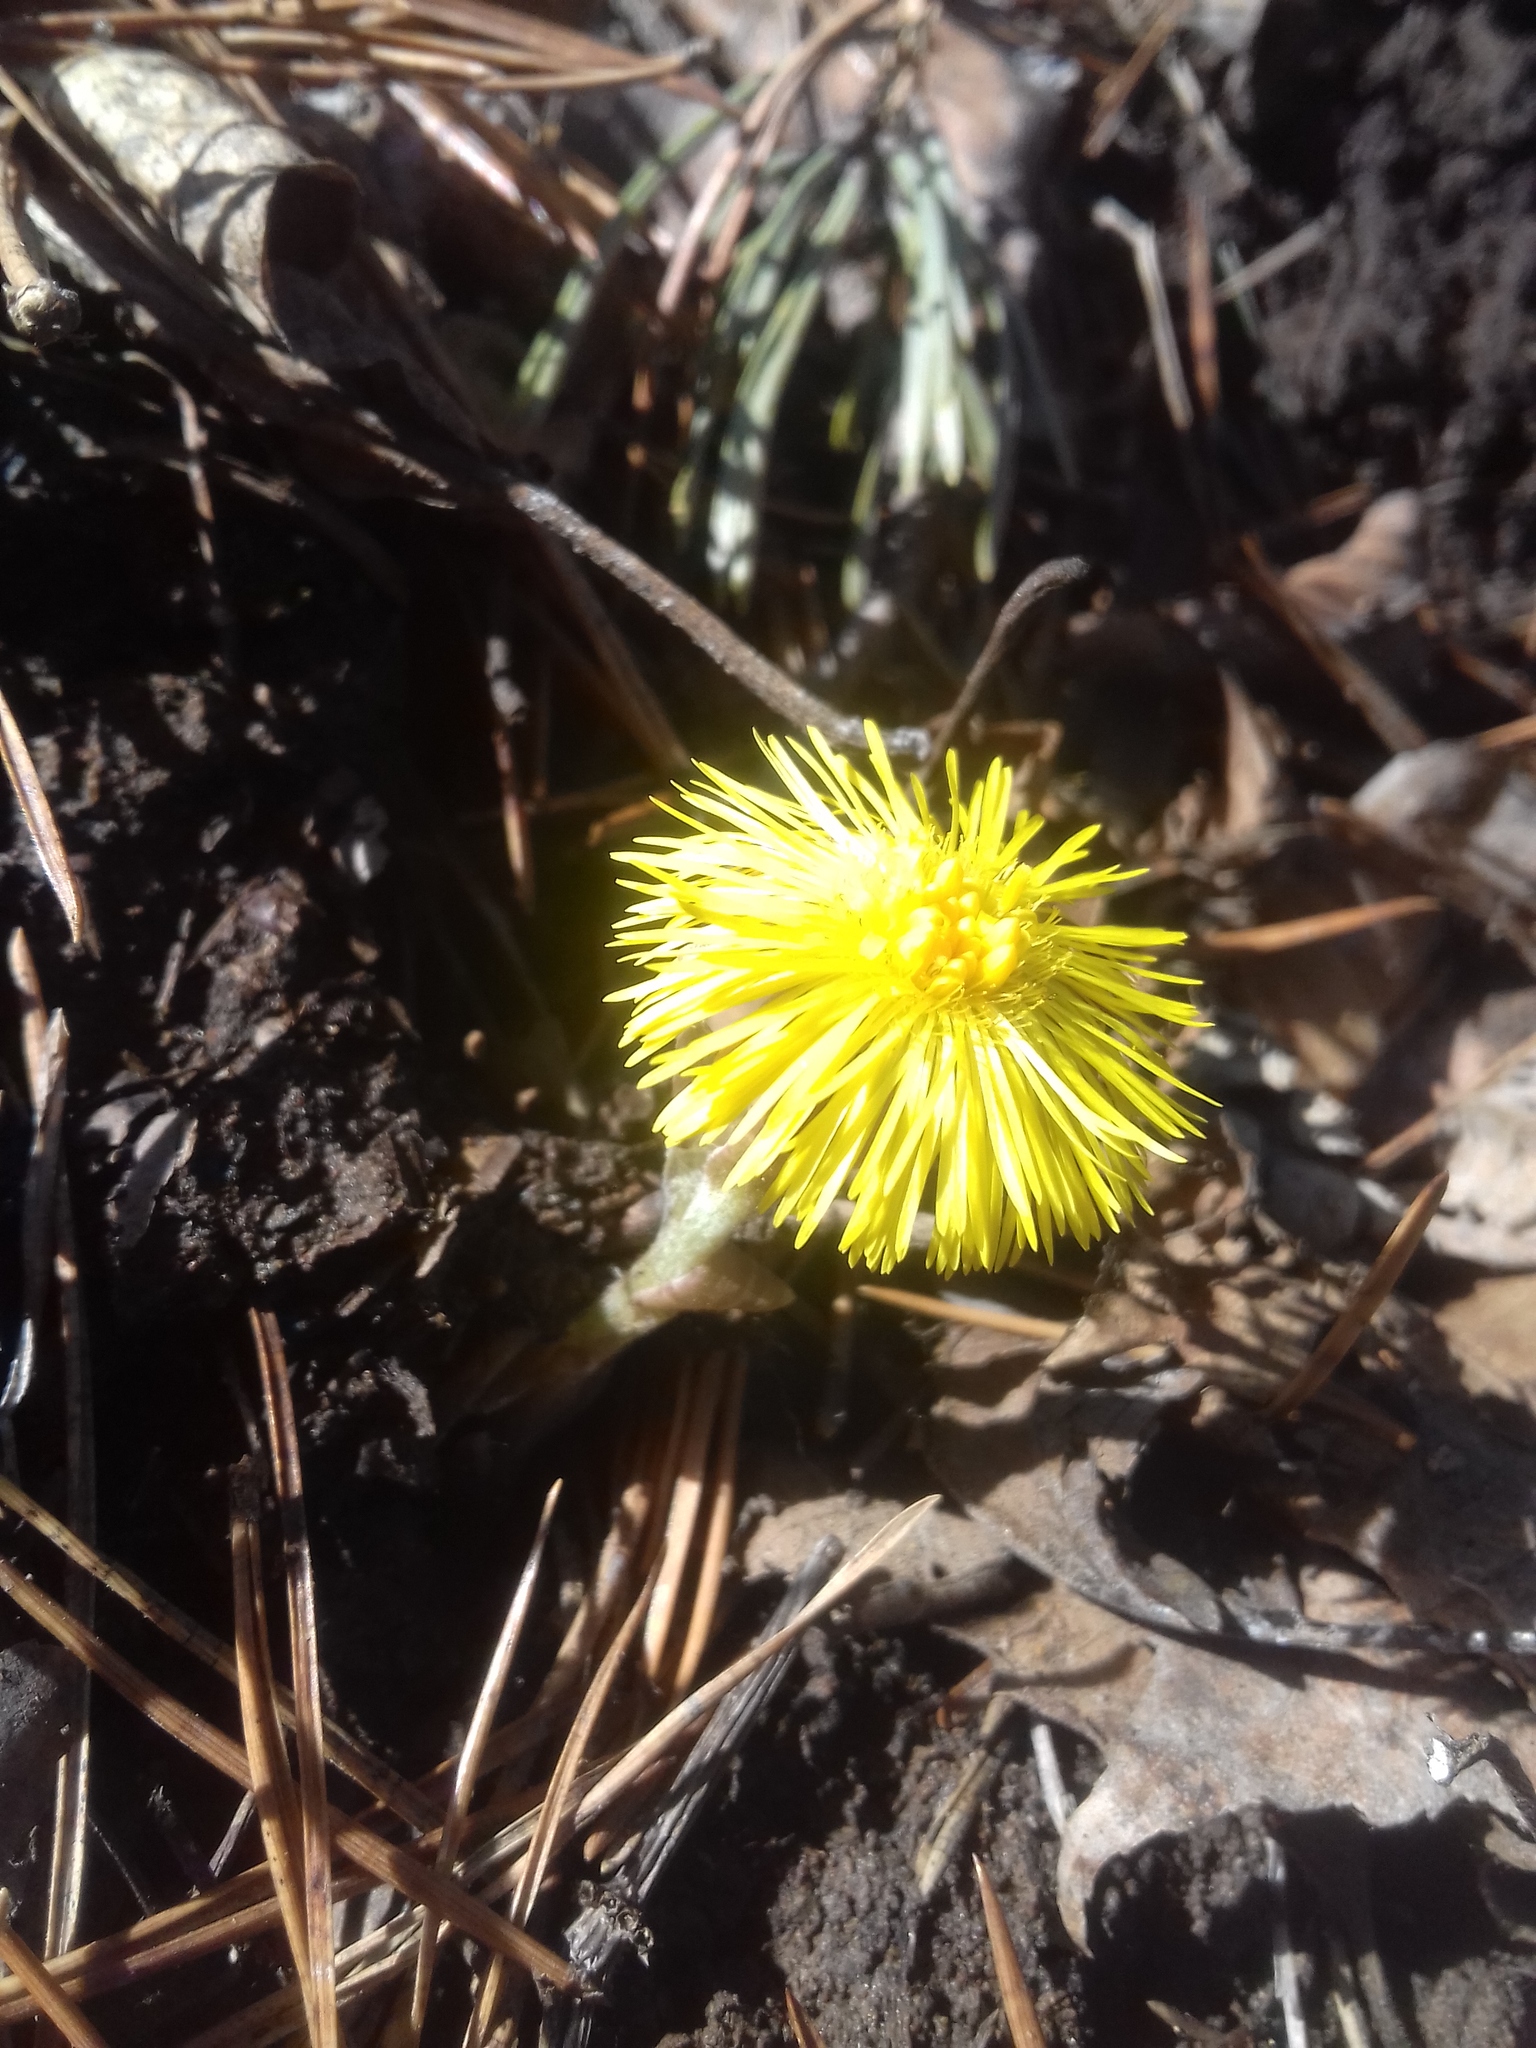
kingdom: Plantae
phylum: Tracheophyta
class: Magnoliopsida
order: Asterales
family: Asteraceae
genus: Tussilago
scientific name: Tussilago farfara
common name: Coltsfoot
